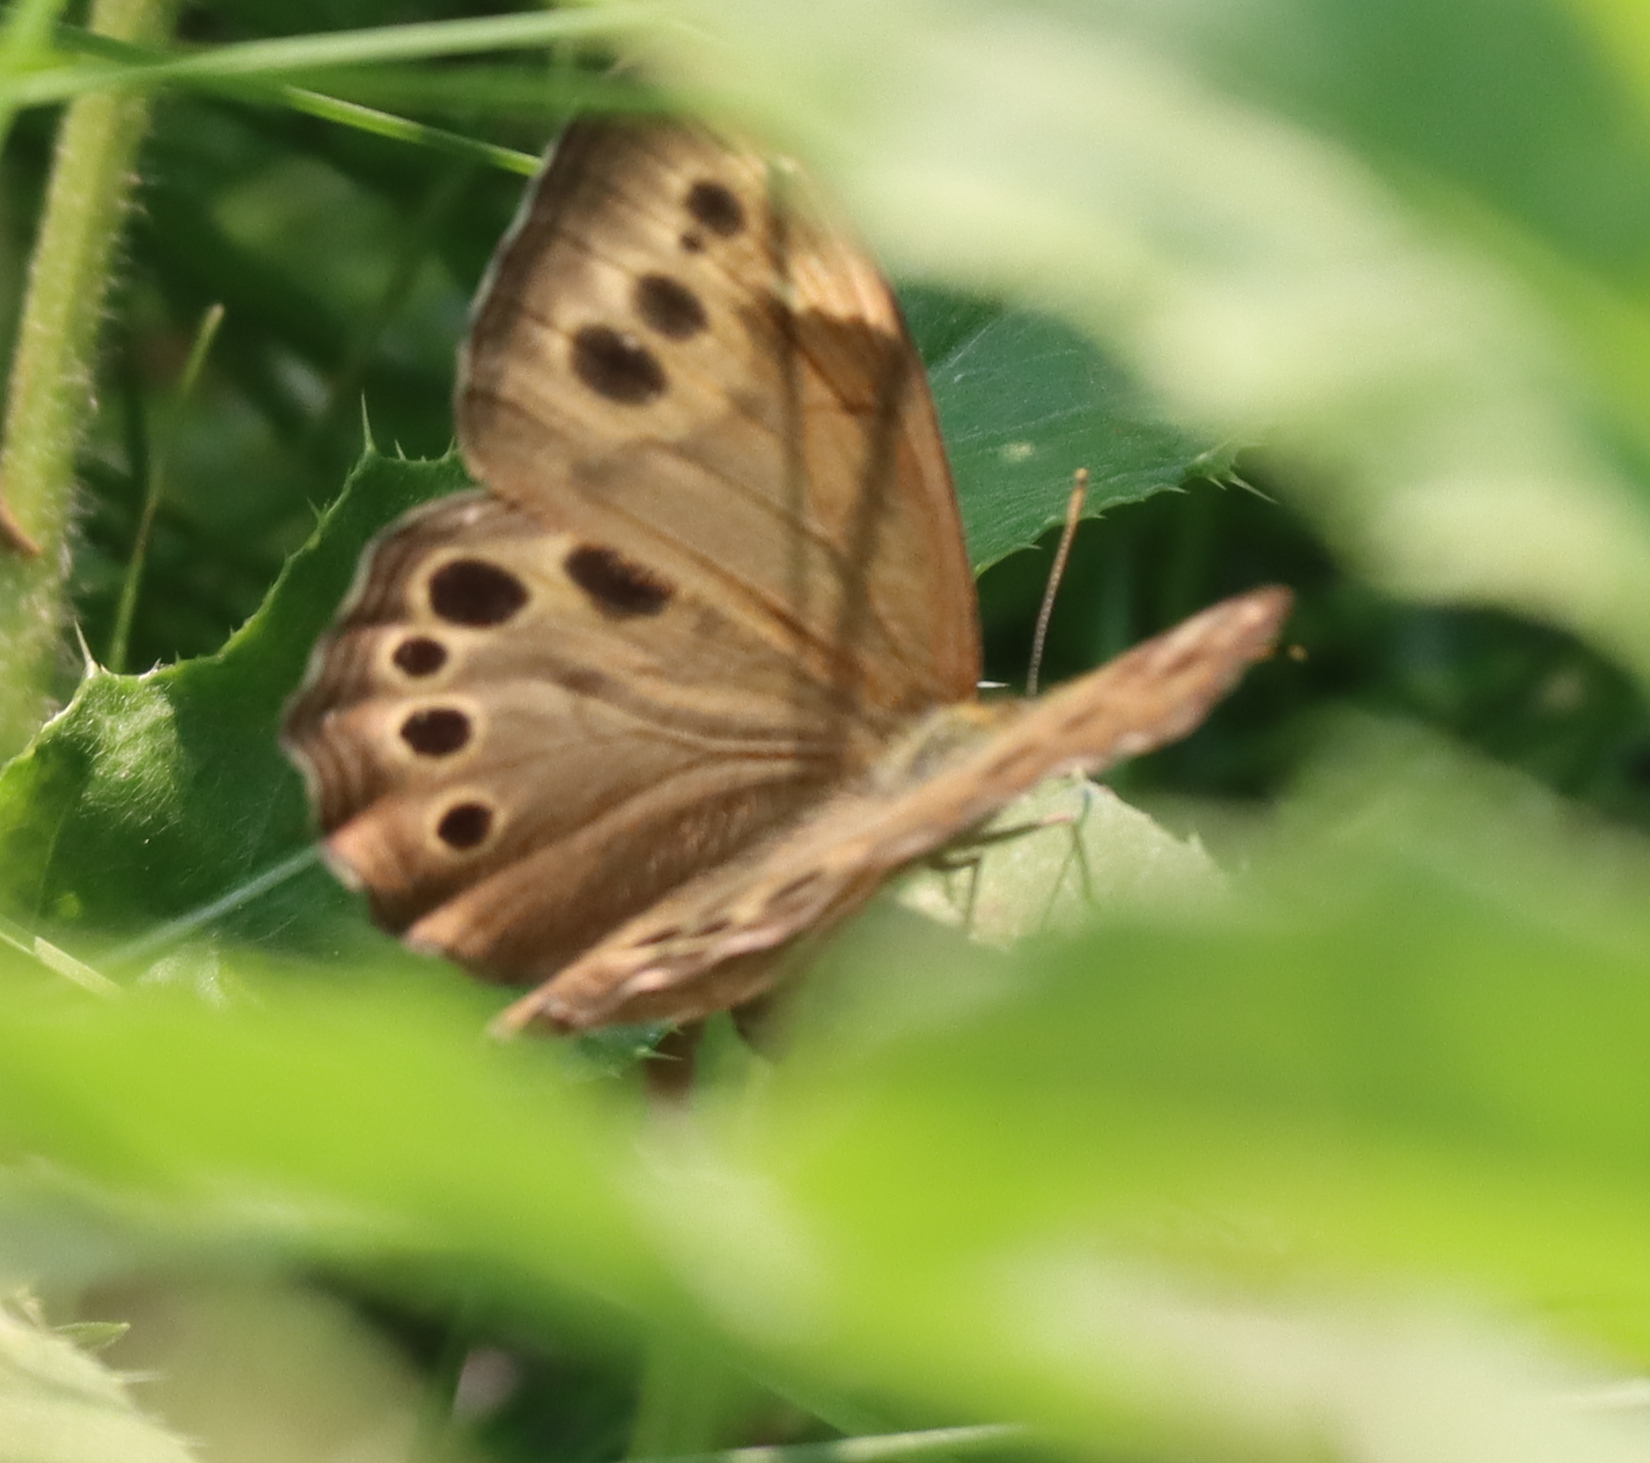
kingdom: Animalia
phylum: Arthropoda
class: Insecta
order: Lepidoptera
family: Nymphalidae
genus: Lethe
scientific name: Lethe anthedon
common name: Northern pearly-eye
